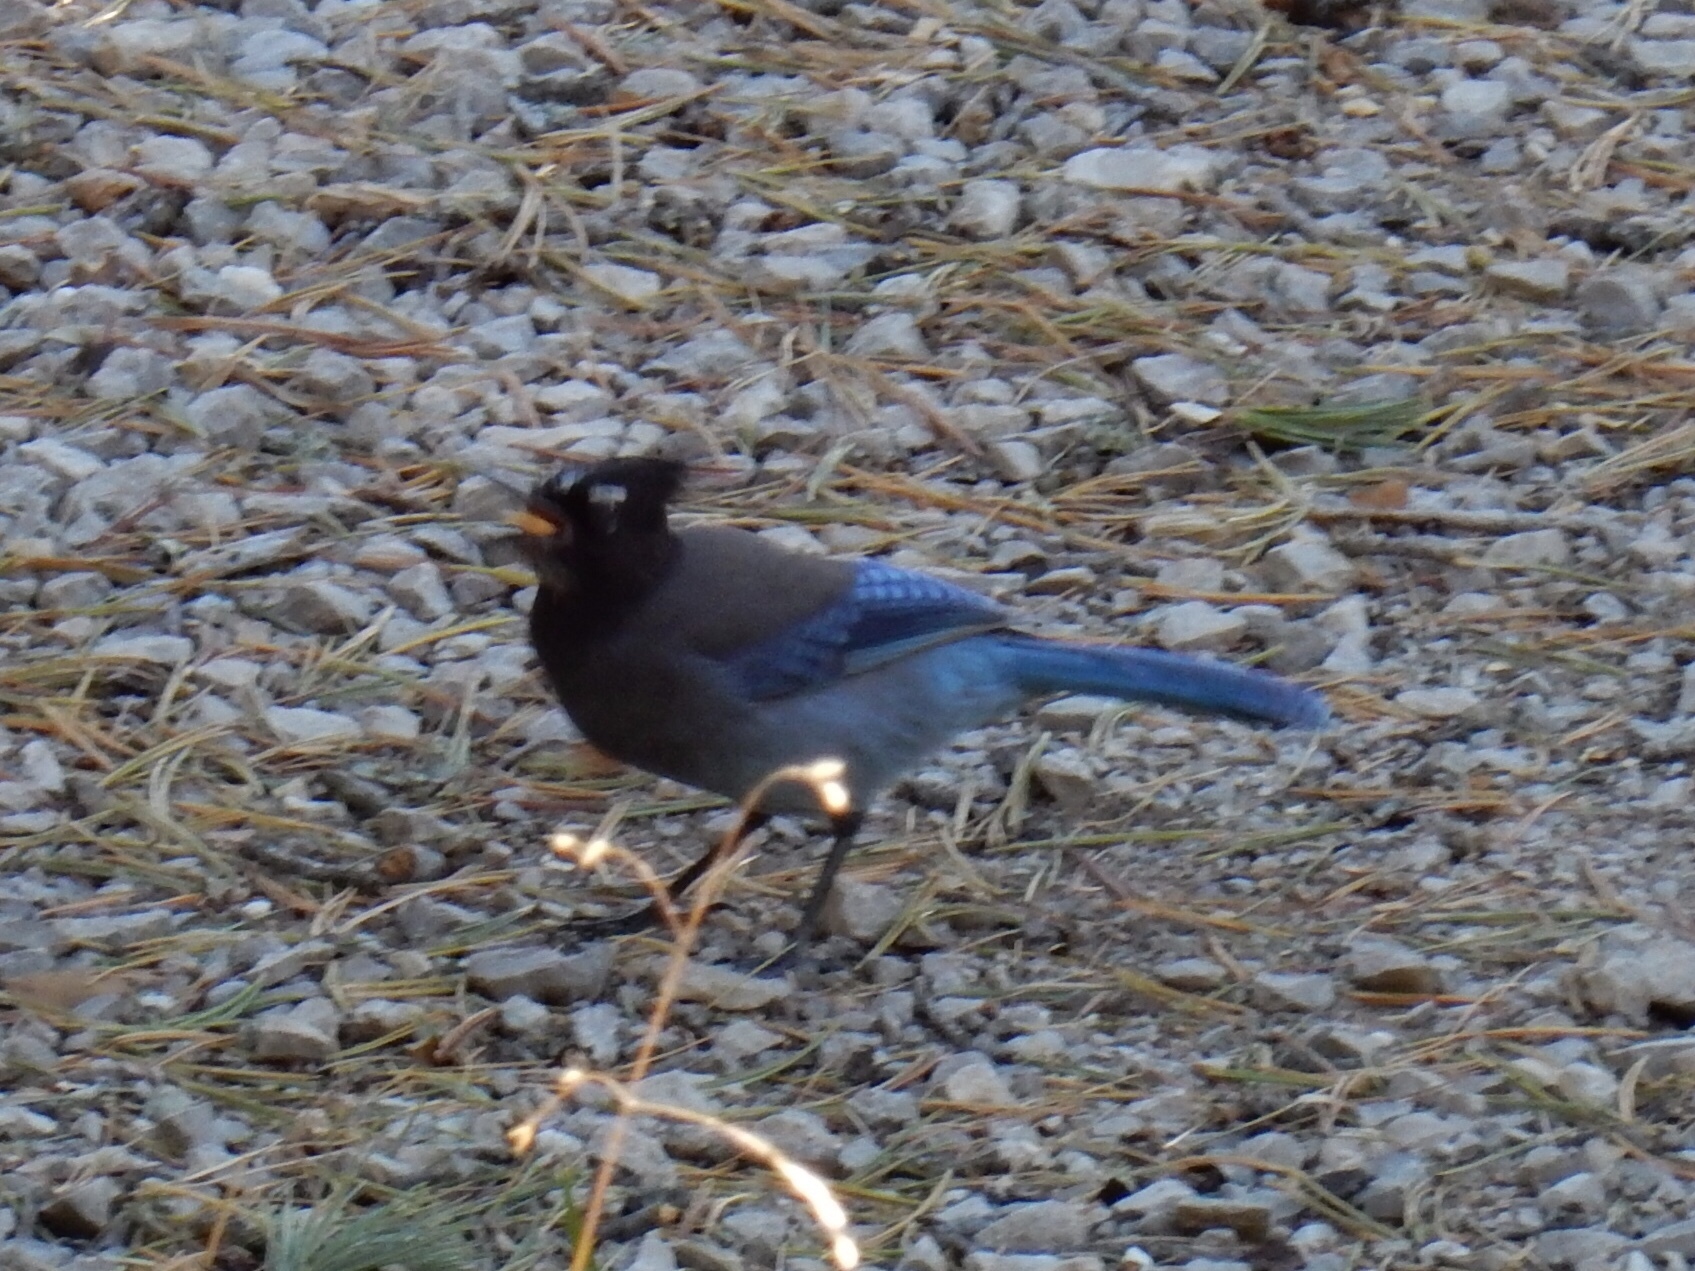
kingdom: Animalia
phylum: Chordata
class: Aves
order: Passeriformes
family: Corvidae
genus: Cyanocitta
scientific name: Cyanocitta stelleri
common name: Steller's jay
